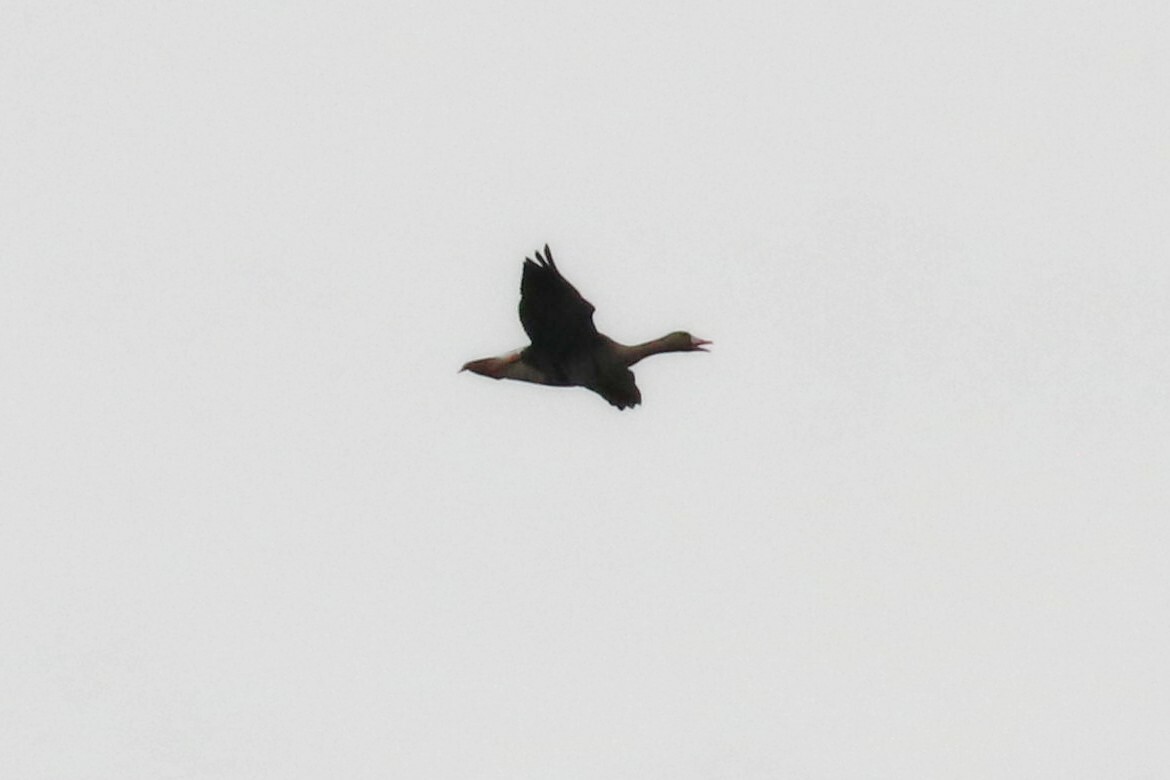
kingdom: Animalia
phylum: Chordata
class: Aves
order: Anseriformes
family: Anatidae
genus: Anser
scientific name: Anser albifrons
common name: Greater white-fronted goose
